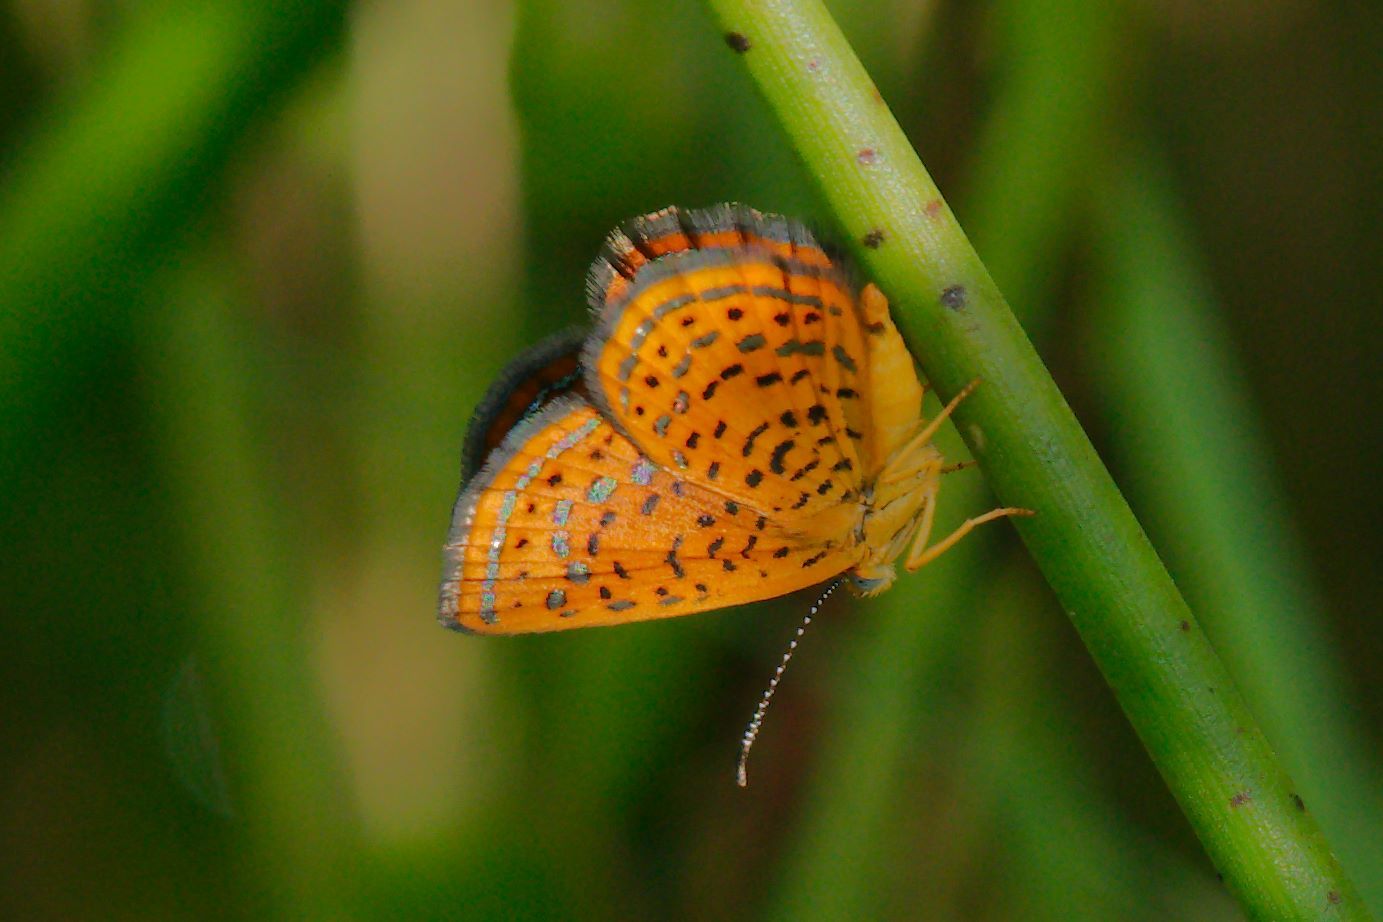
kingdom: Animalia
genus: Calephelis
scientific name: Calephelis virginiensis
